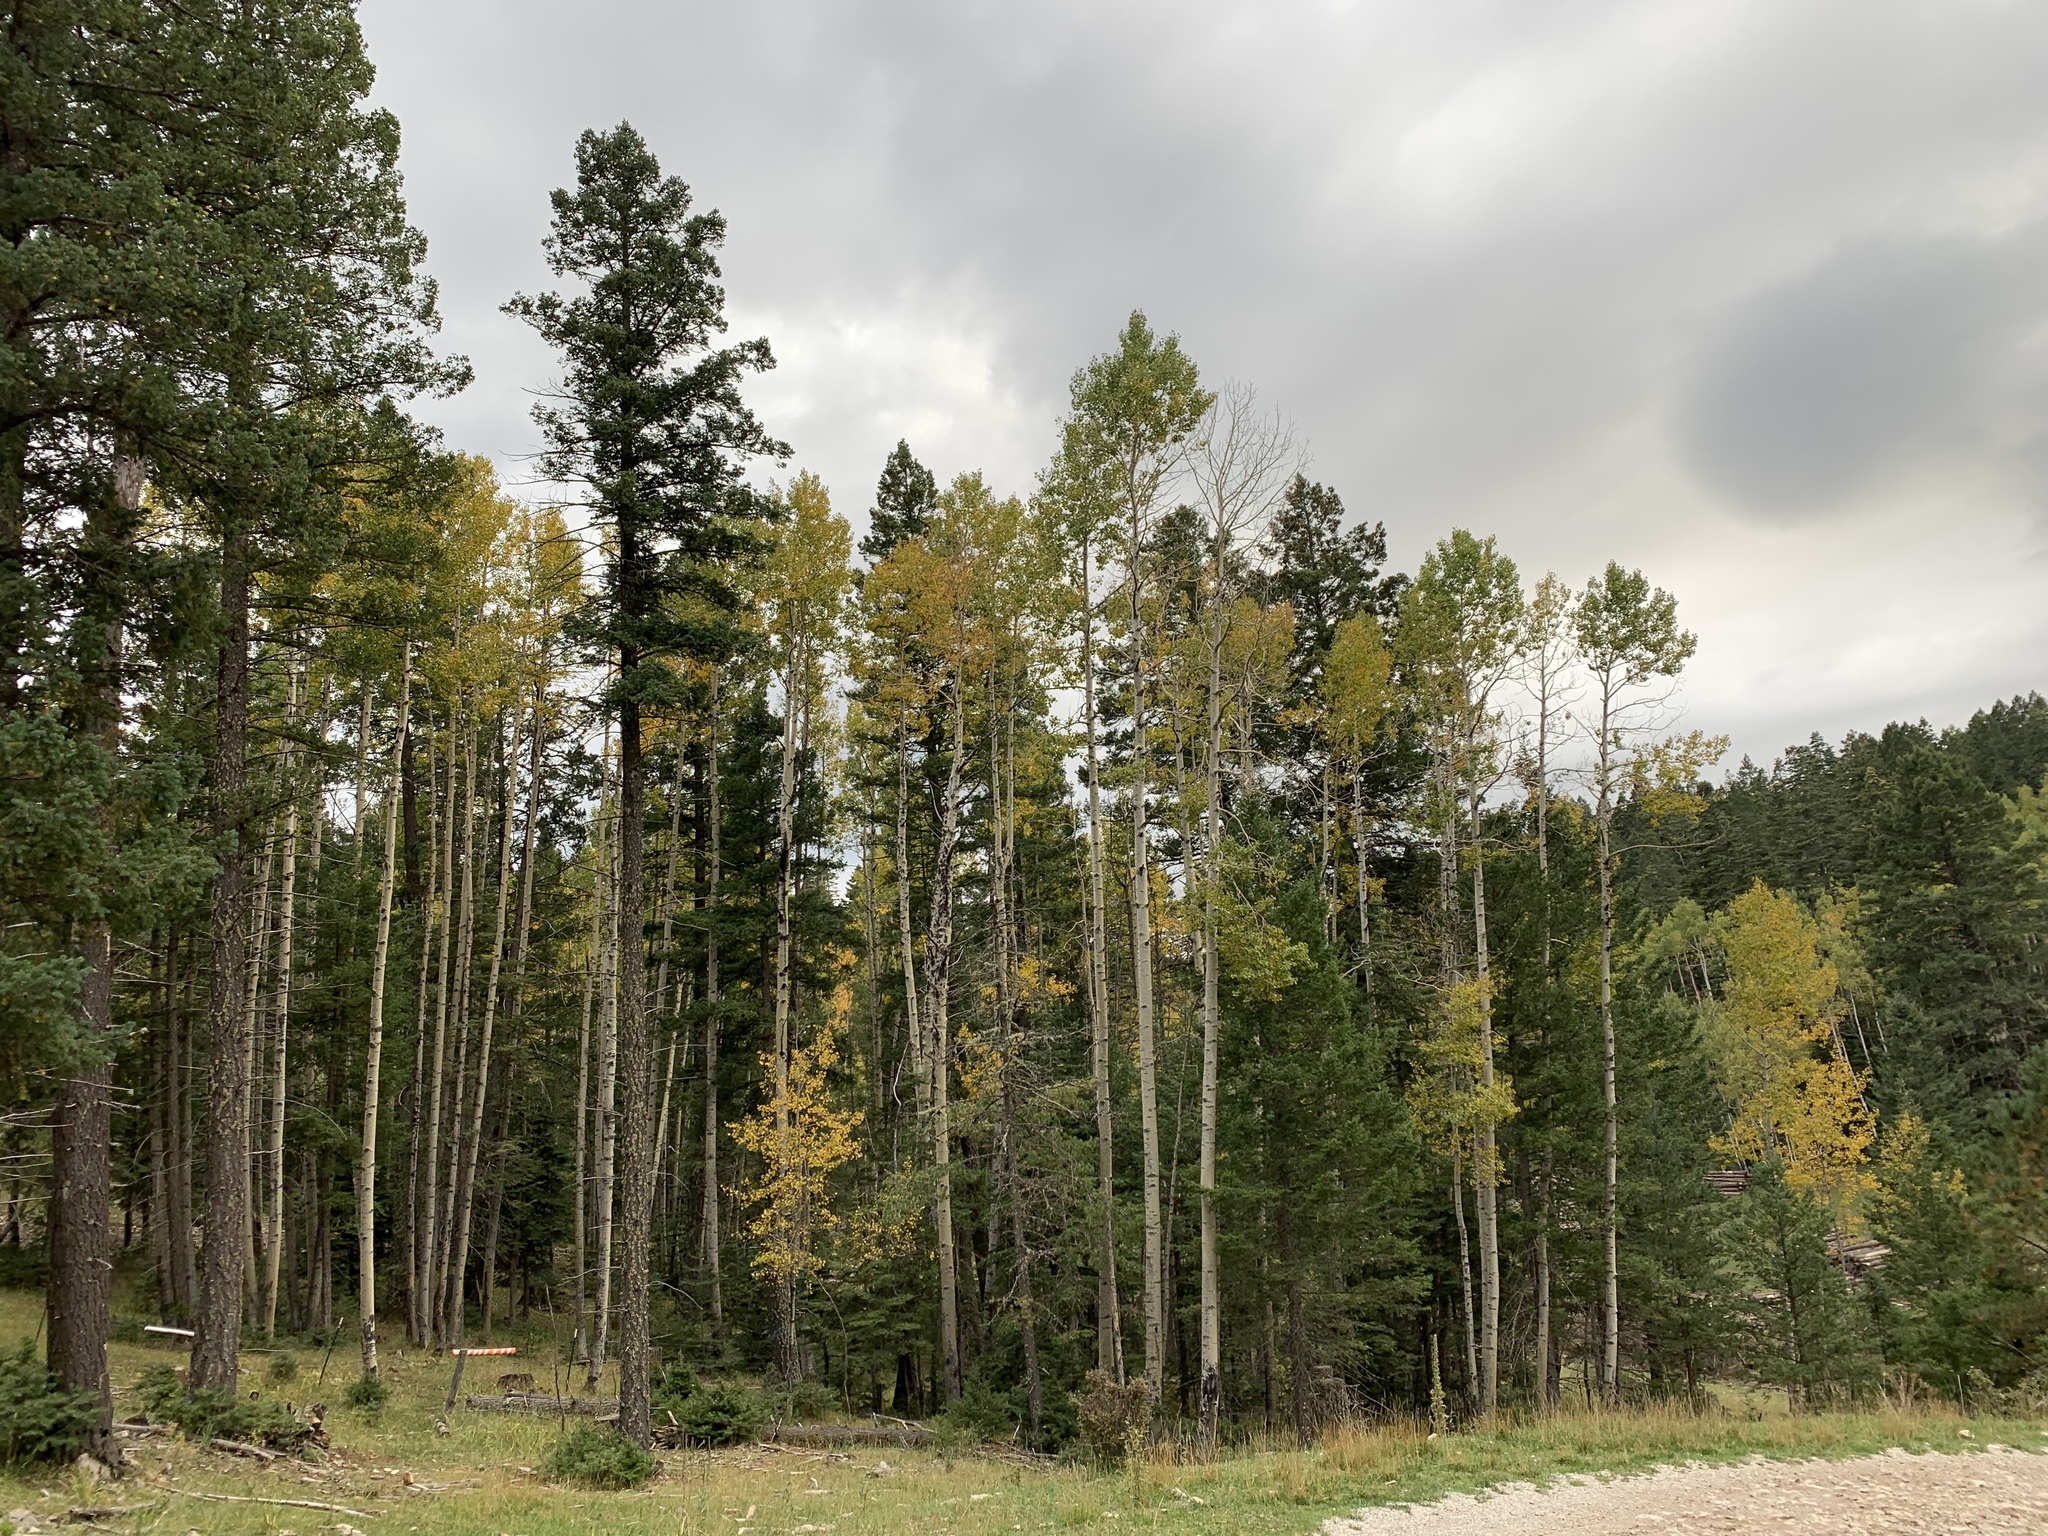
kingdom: Plantae
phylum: Tracheophyta
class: Magnoliopsida
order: Malpighiales
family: Salicaceae
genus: Populus
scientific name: Populus tremuloides
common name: Quaking aspen
